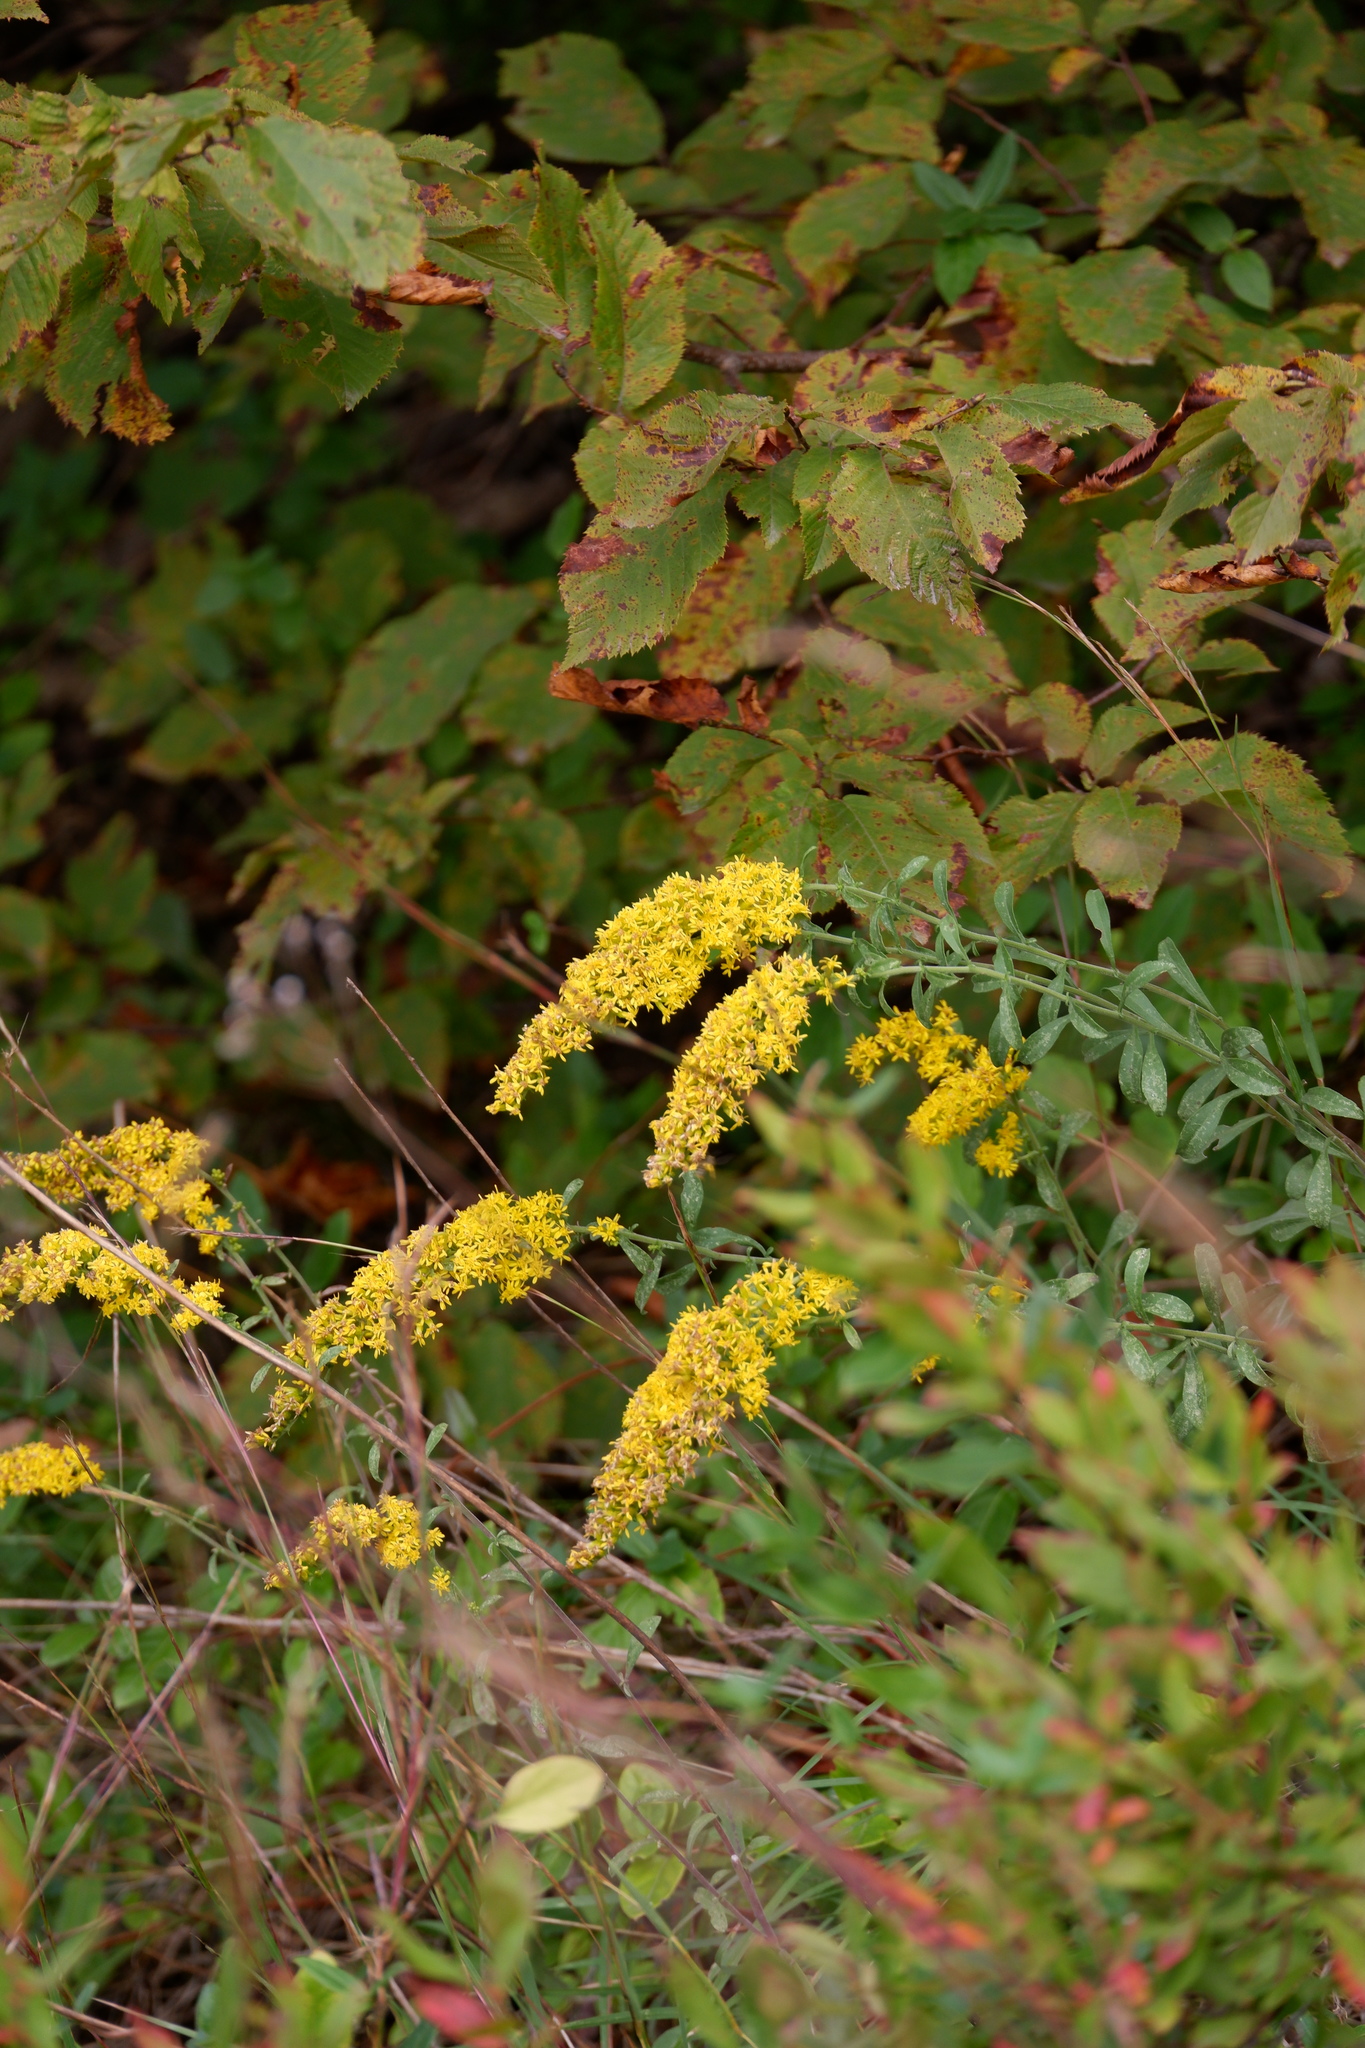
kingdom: Plantae
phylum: Tracheophyta
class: Magnoliopsida
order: Asterales
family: Asteraceae
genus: Solidago
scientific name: Solidago nemoralis
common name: Grey goldenrod
